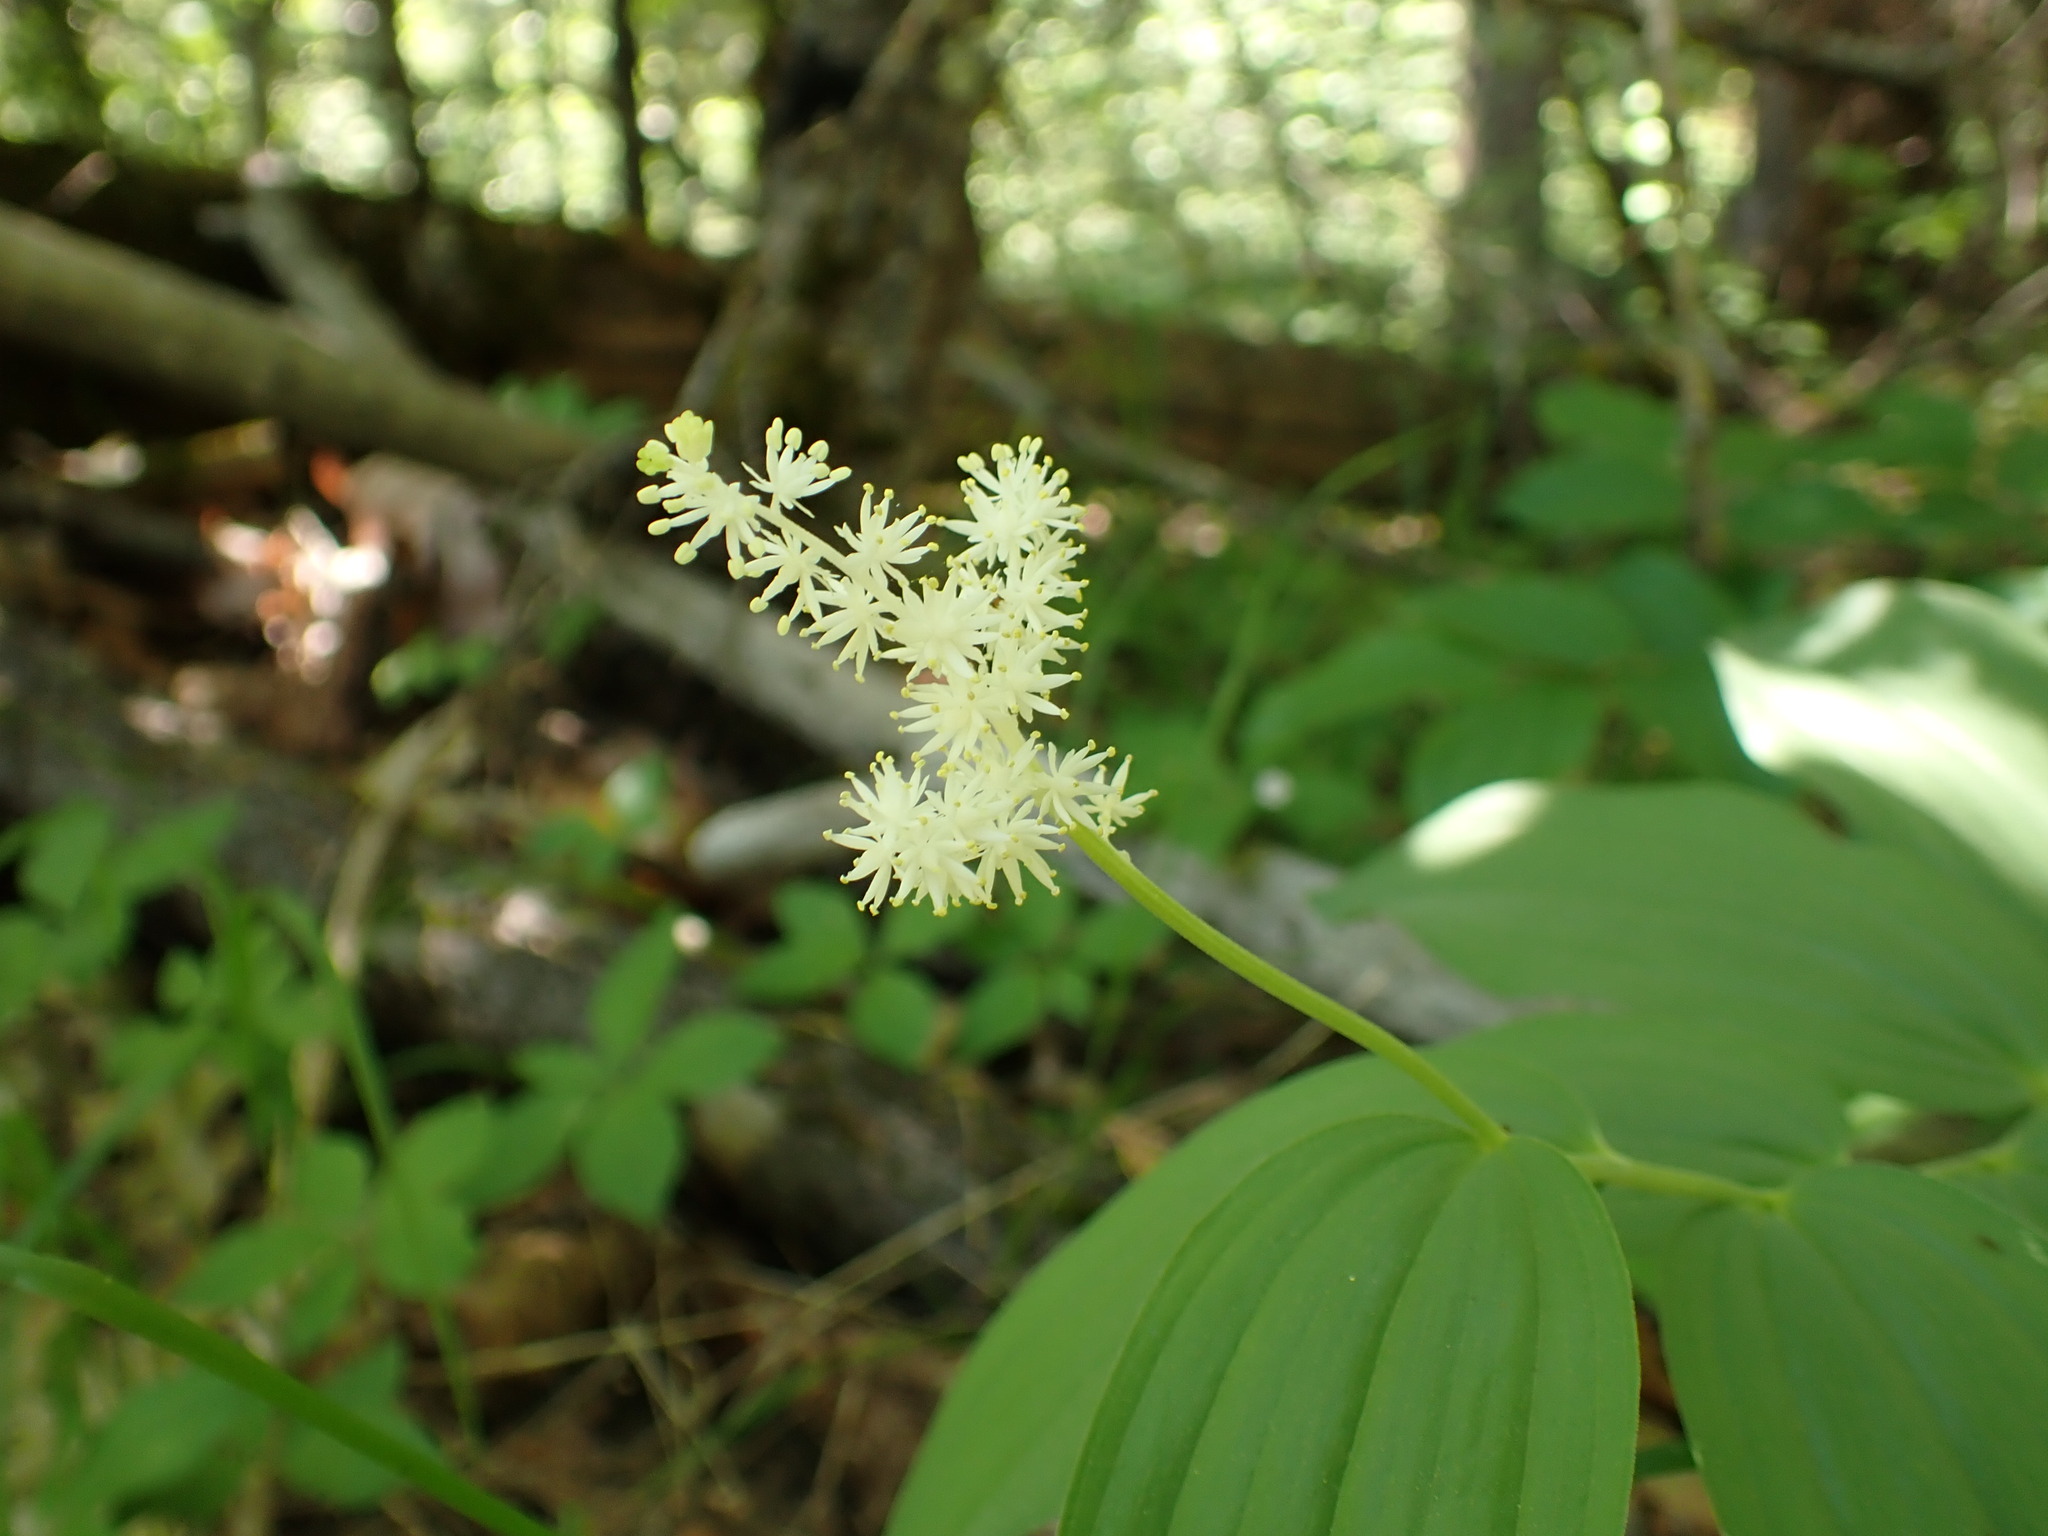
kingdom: Plantae
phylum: Tracheophyta
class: Liliopsida
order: Asparagales
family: Asparagaceae
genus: Maianthemum
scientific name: Maianthemum racemosum
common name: False spikenard
